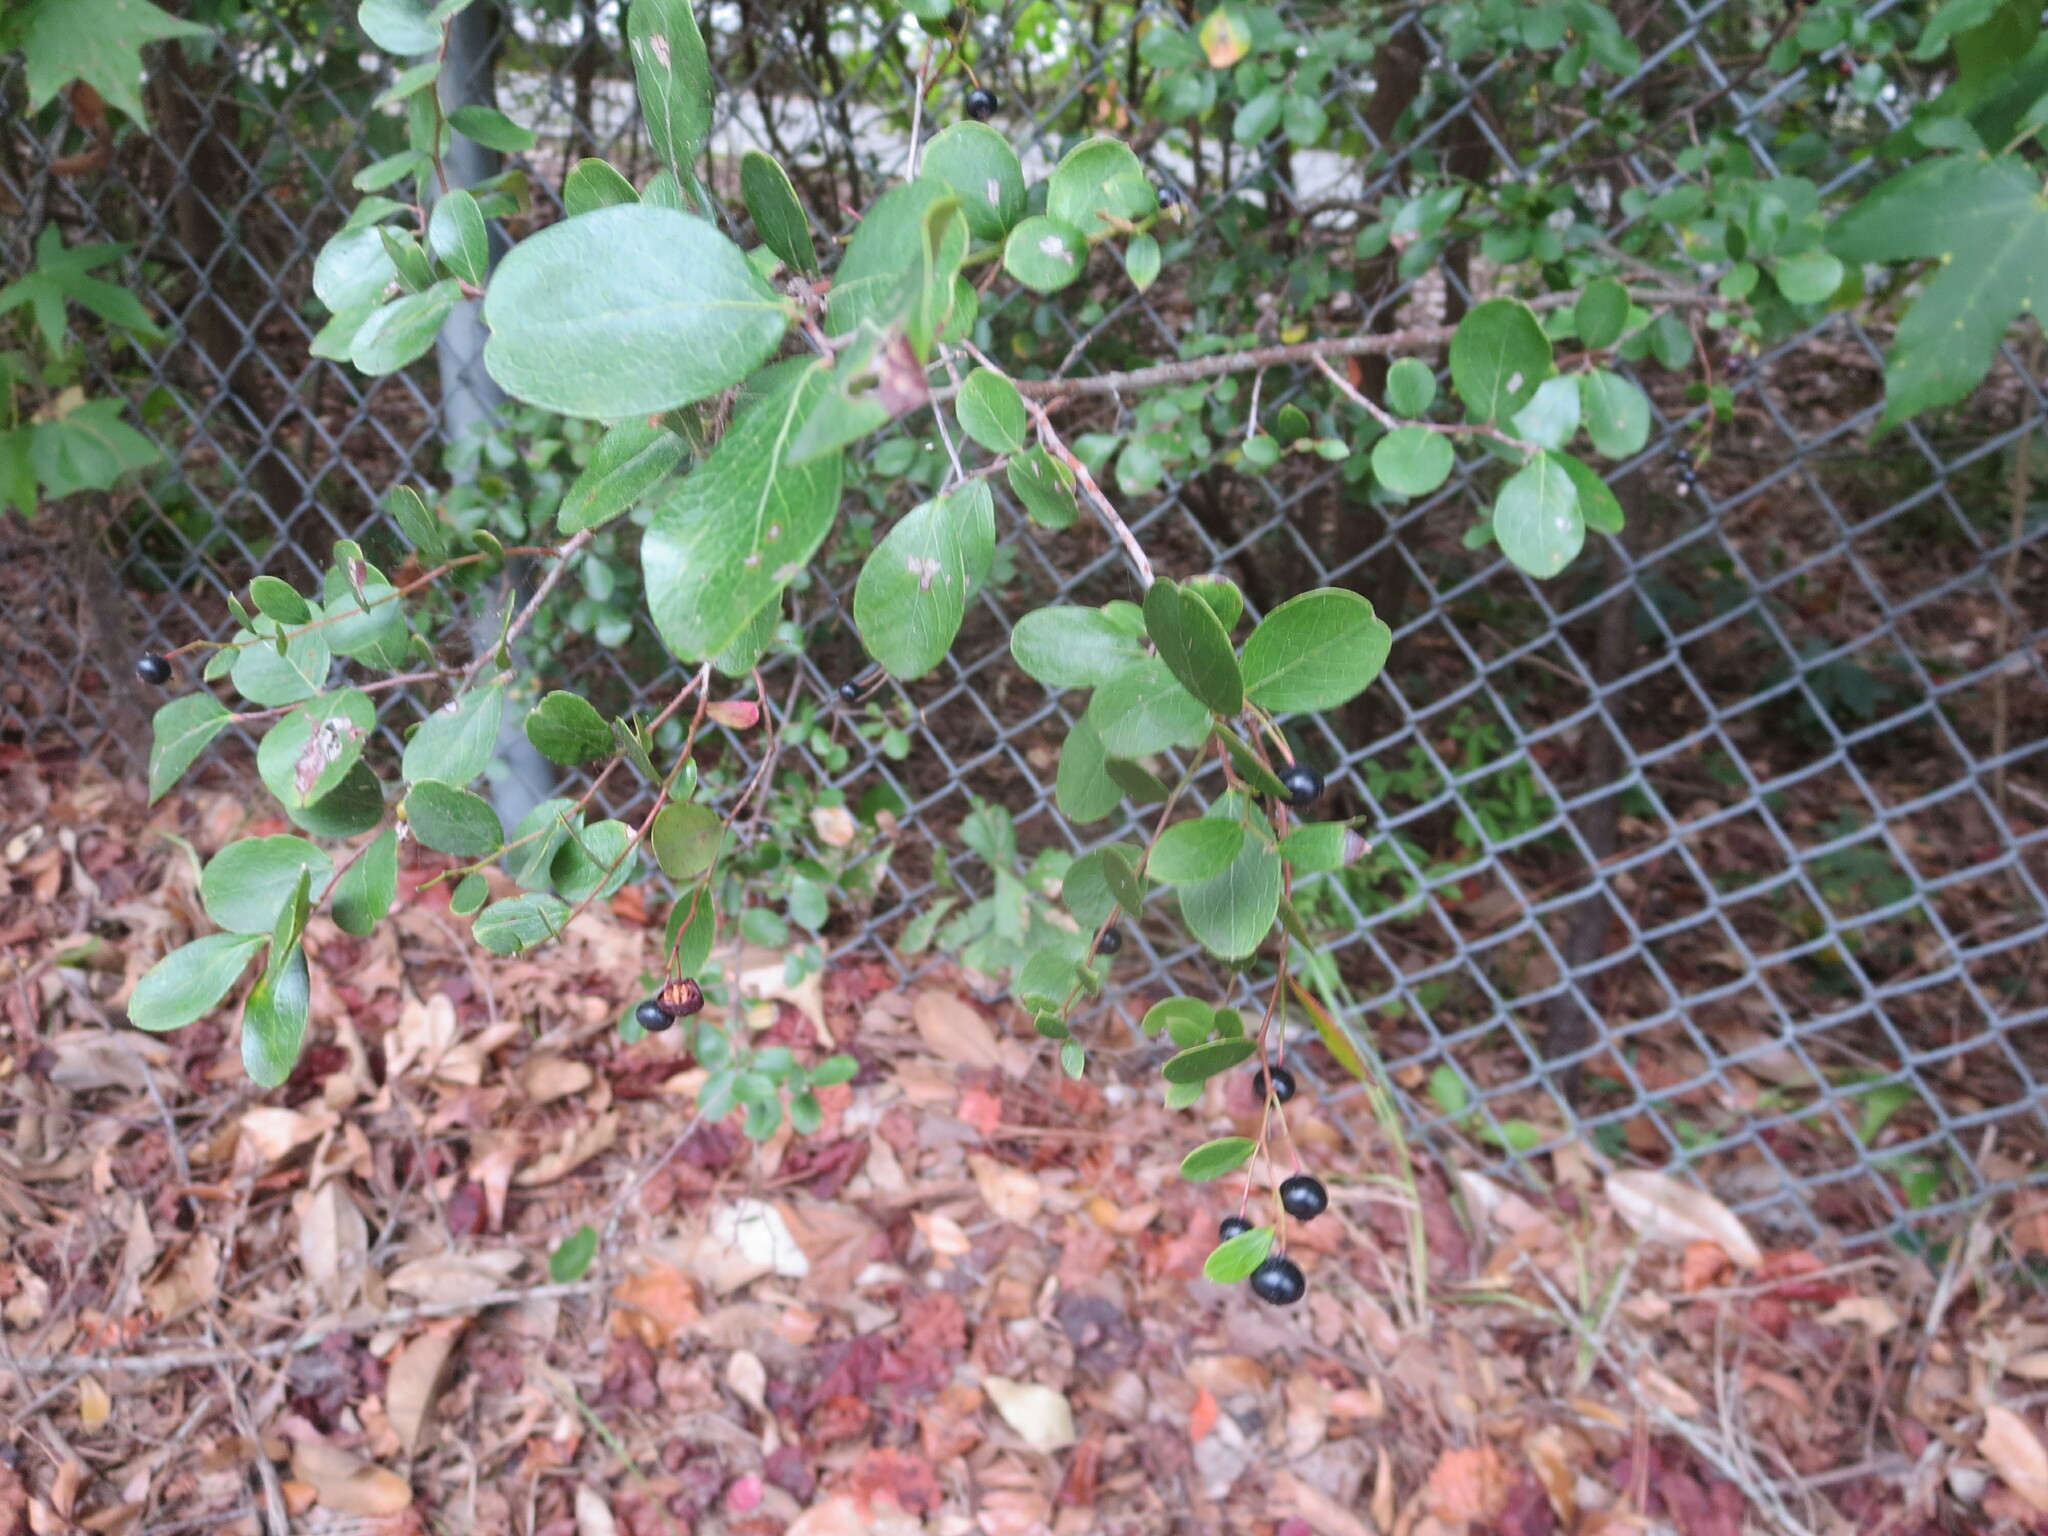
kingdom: Plantae
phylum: Tracheophyta
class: Magnoliopsida
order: Ericales
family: Ericaceae
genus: Vaccinium
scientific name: Vaccinium arboreum
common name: Farkleberry
